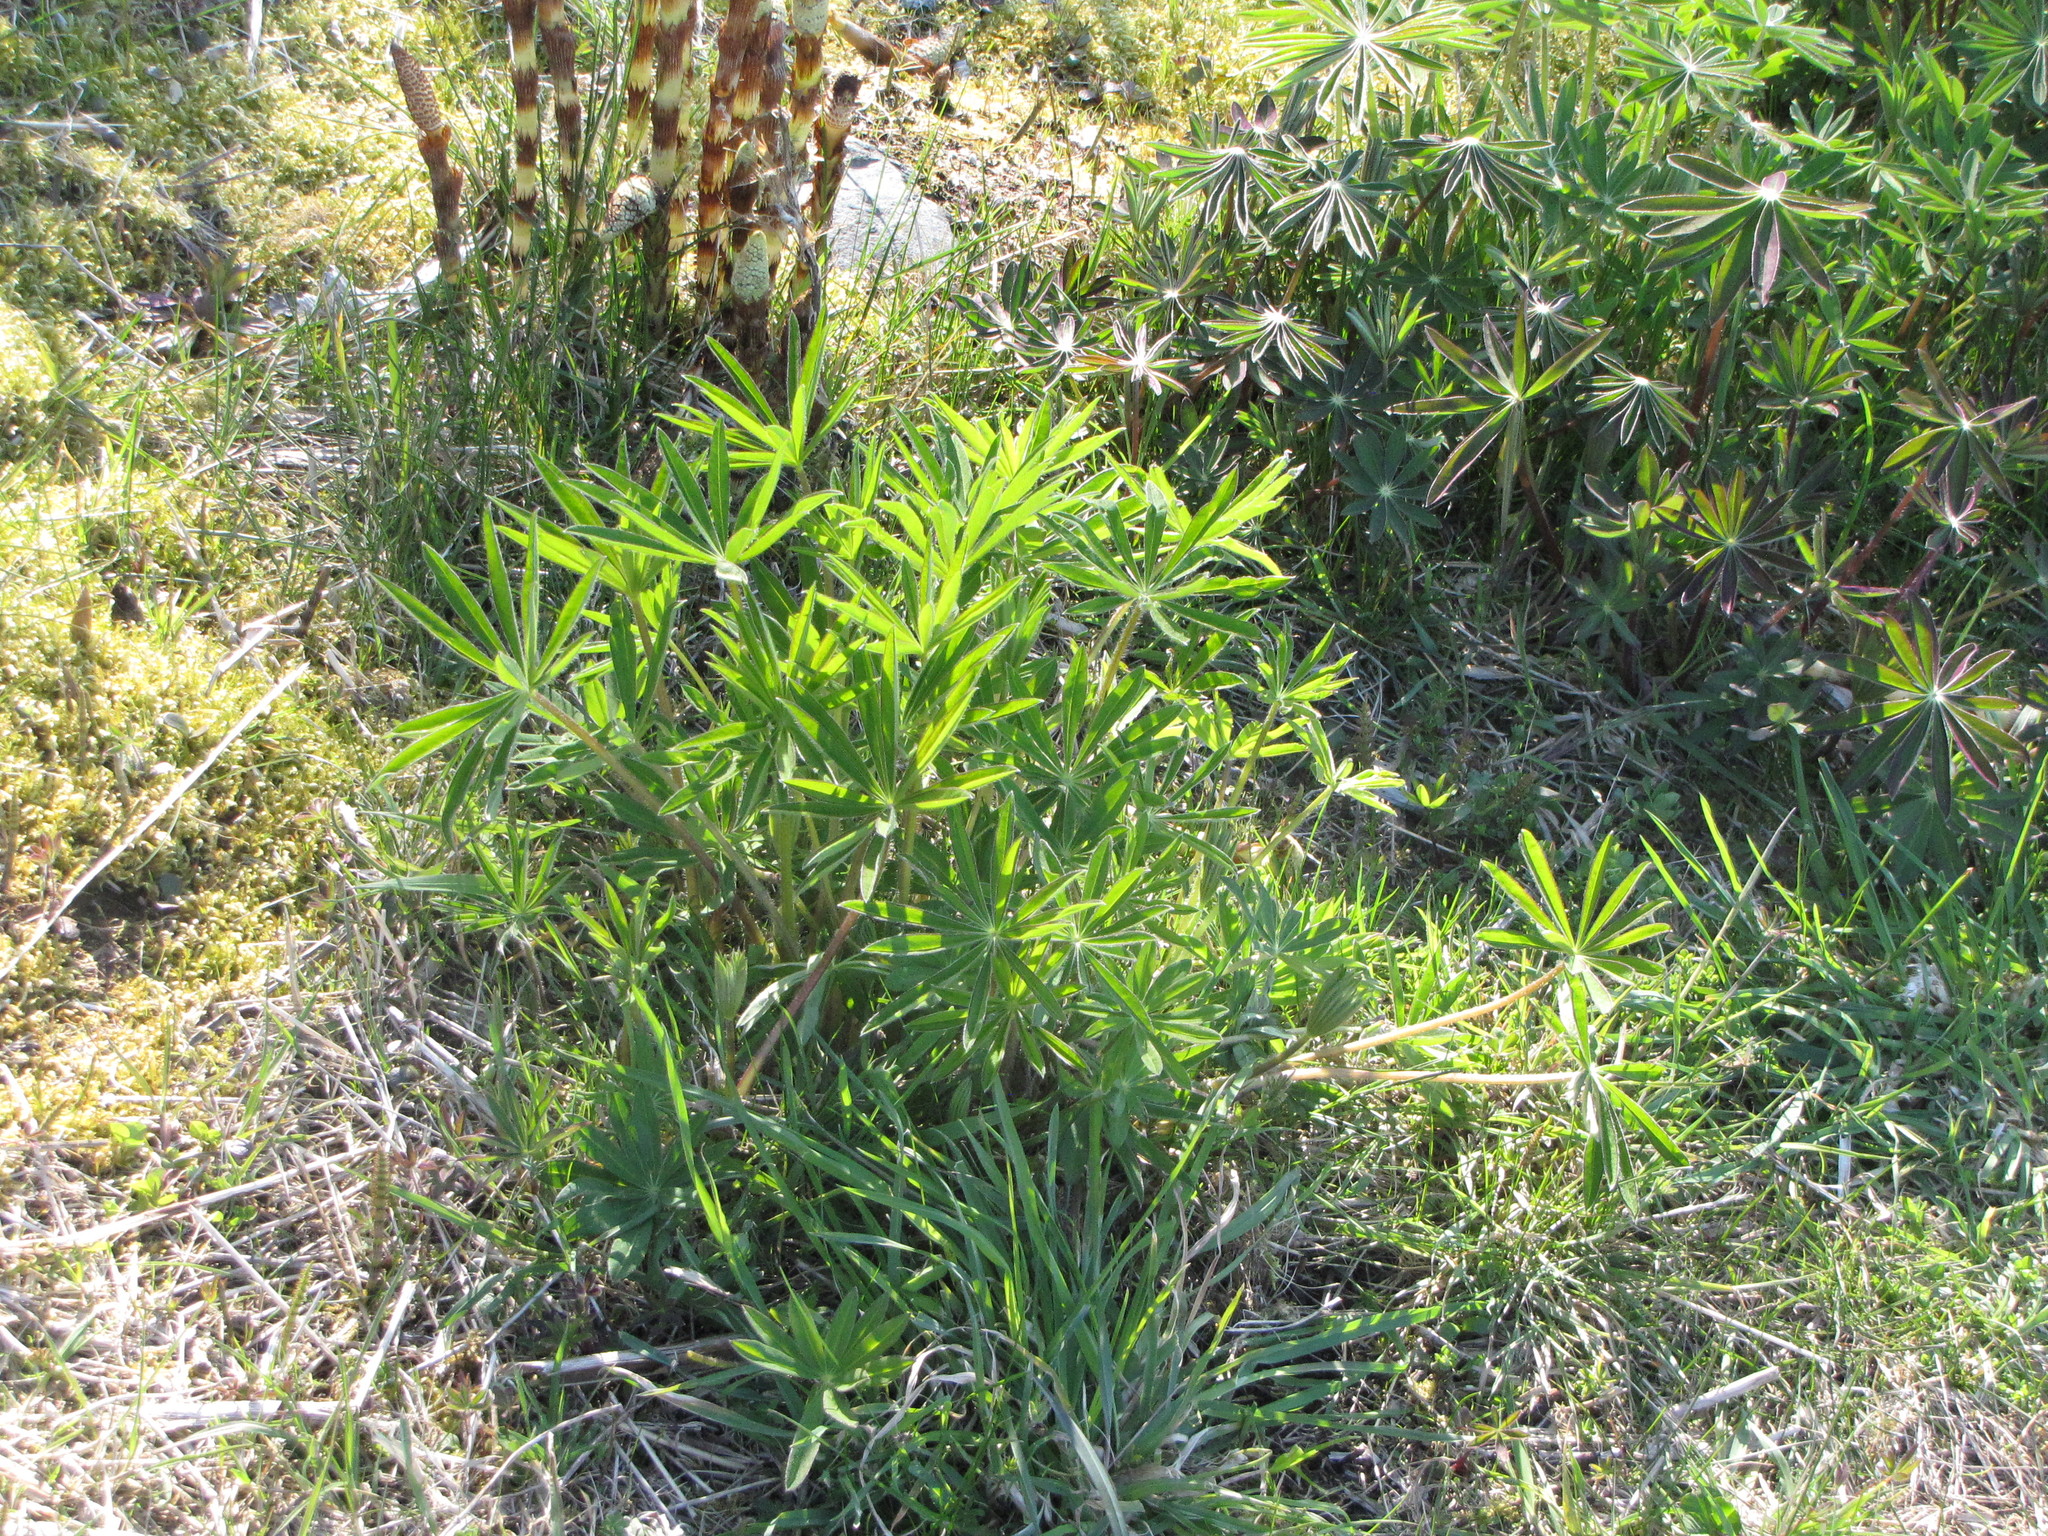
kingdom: Plantae
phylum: Tracheophyta
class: Magnoliopsida
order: Fabales
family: Fabaceae
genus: Lupinus
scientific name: Lupinus polyphyllus
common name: Garden lupin
